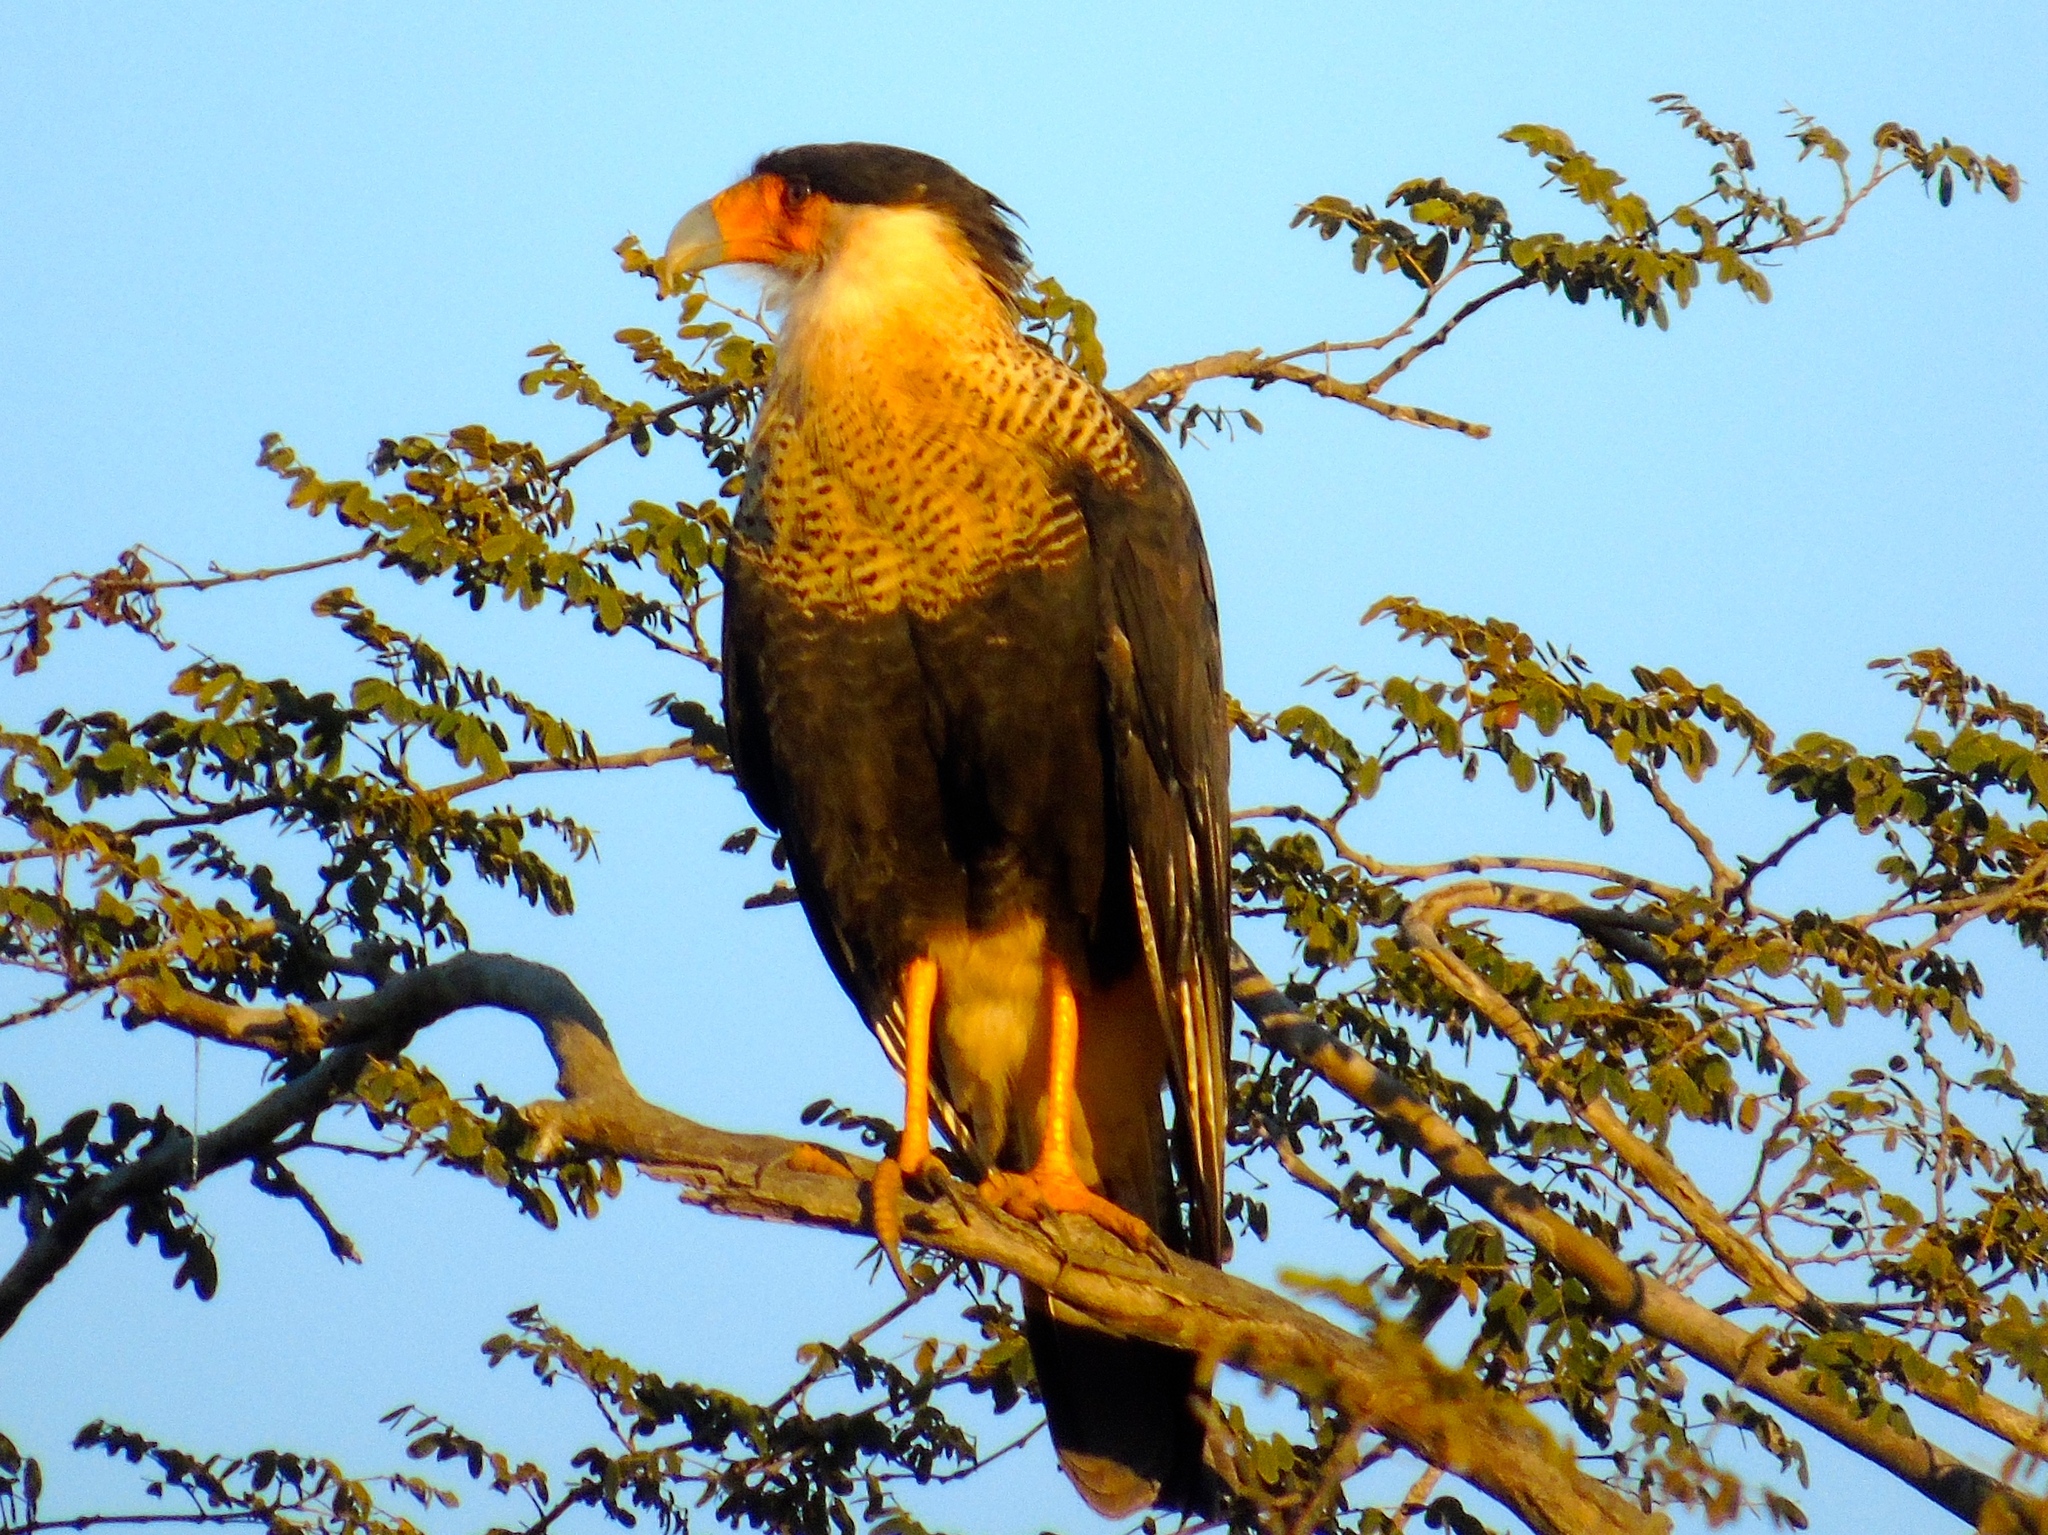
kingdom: Animalia
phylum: Chordata
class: Aves
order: Falconiformes
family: Falconidae
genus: Caracara
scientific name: Caracara plancus
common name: Southern caracara
